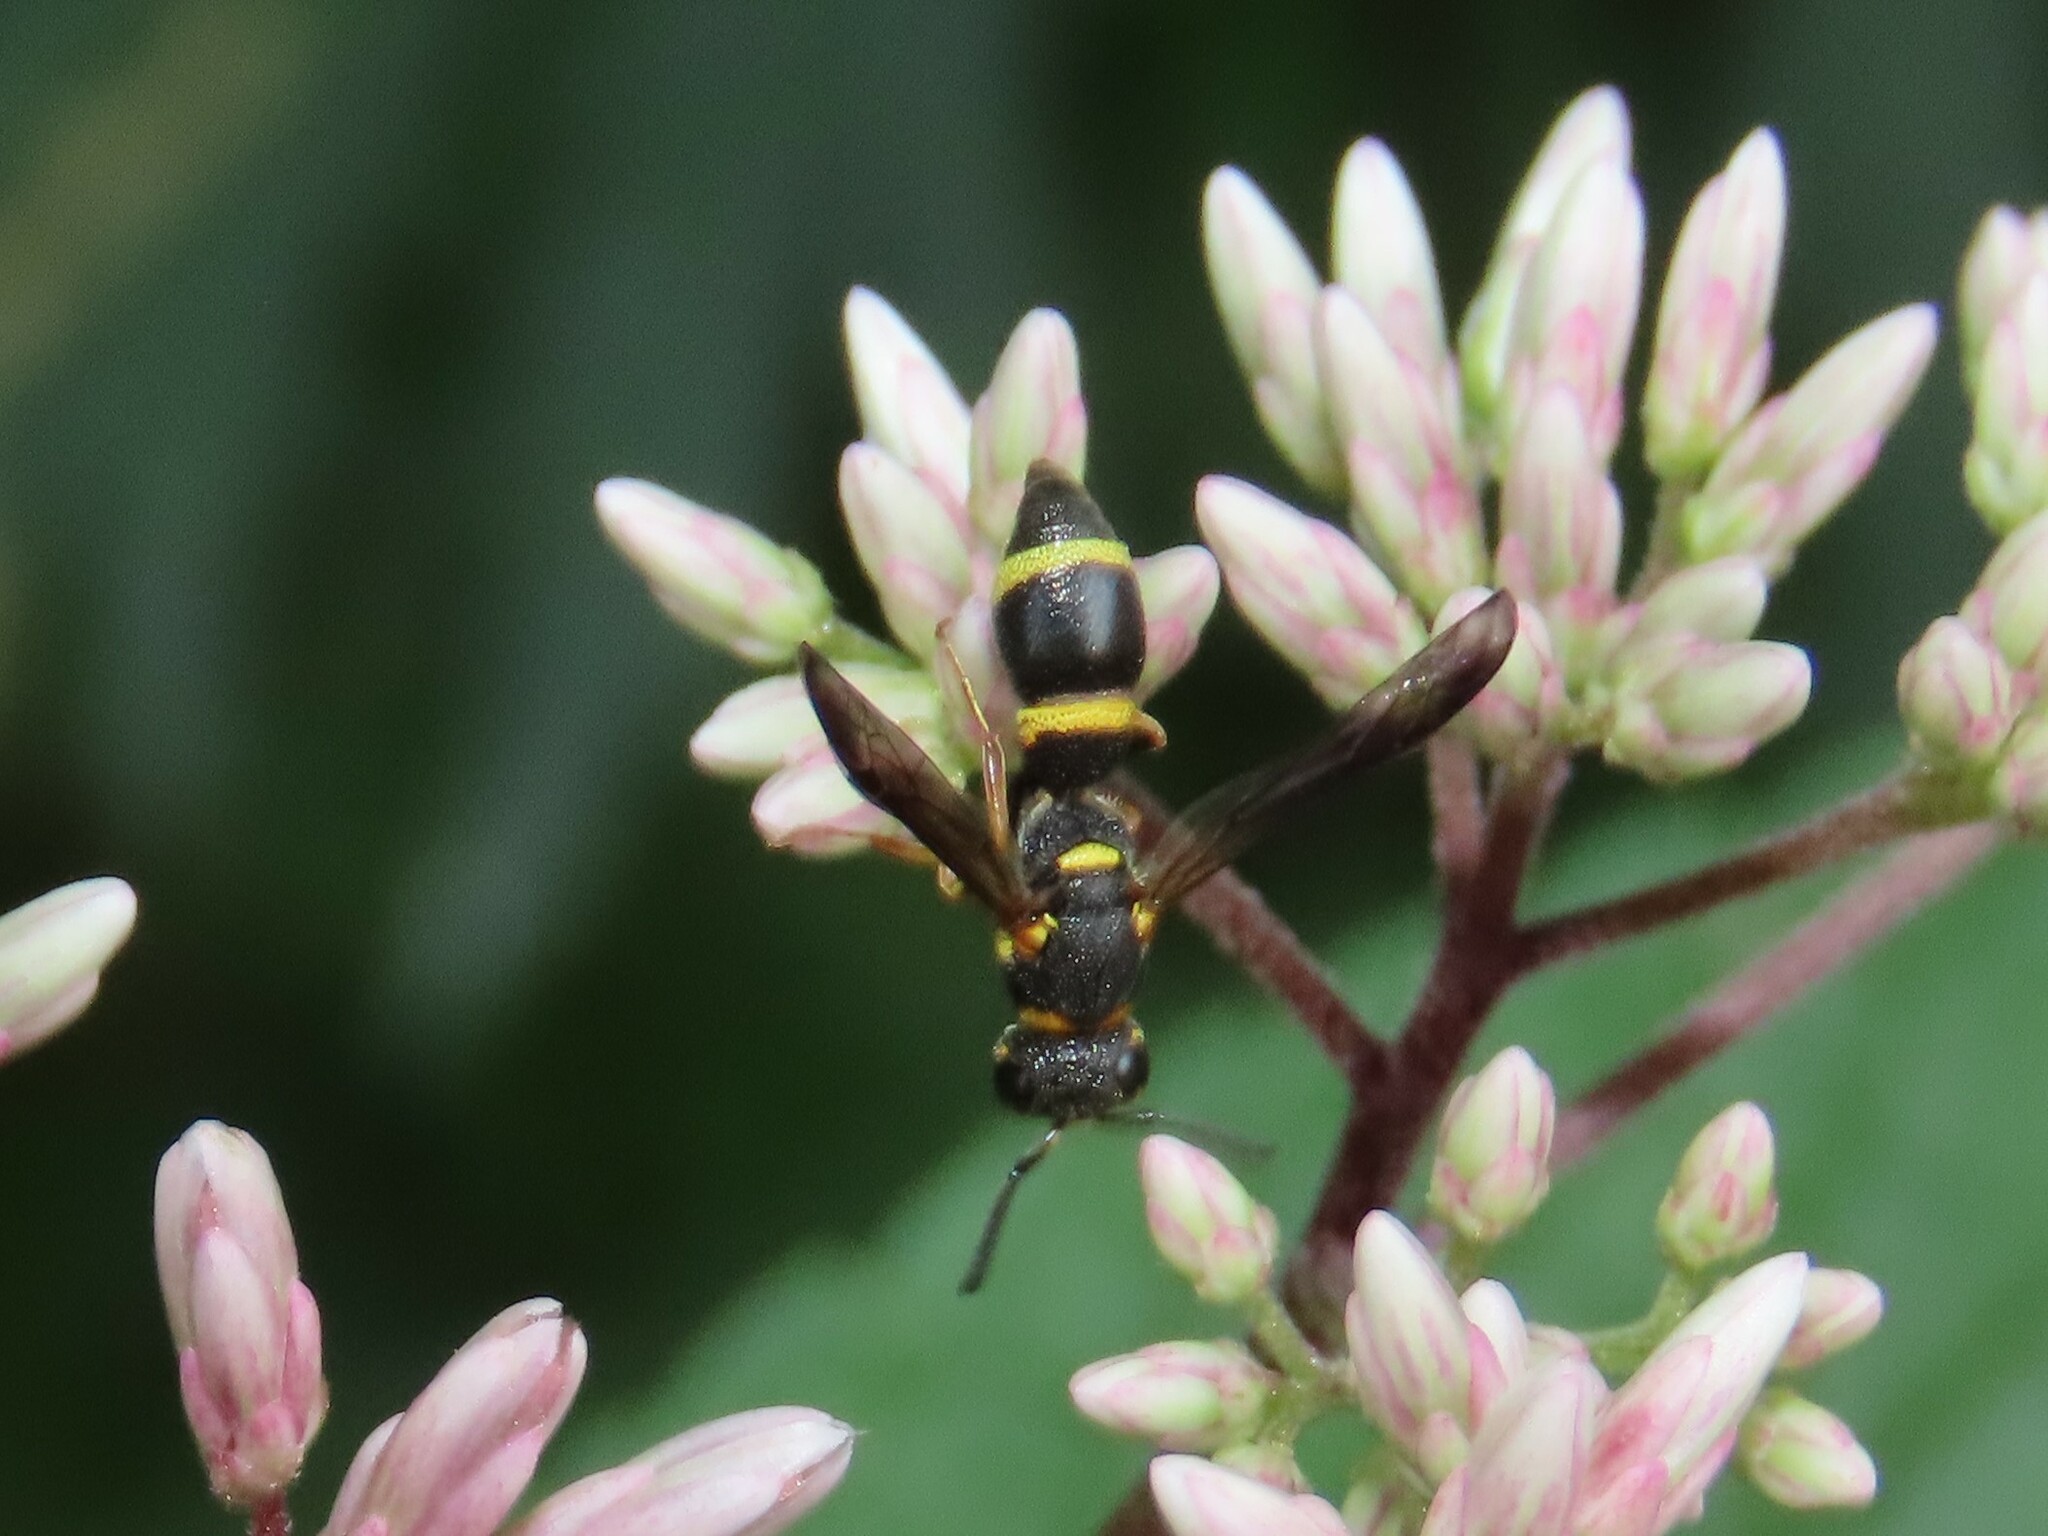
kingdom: Animalia
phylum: Arthropoda
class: Insecta
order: Hymenoptera
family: Eumenidae
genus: Parancistrocerus
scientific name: Parancistrocerus perennis
